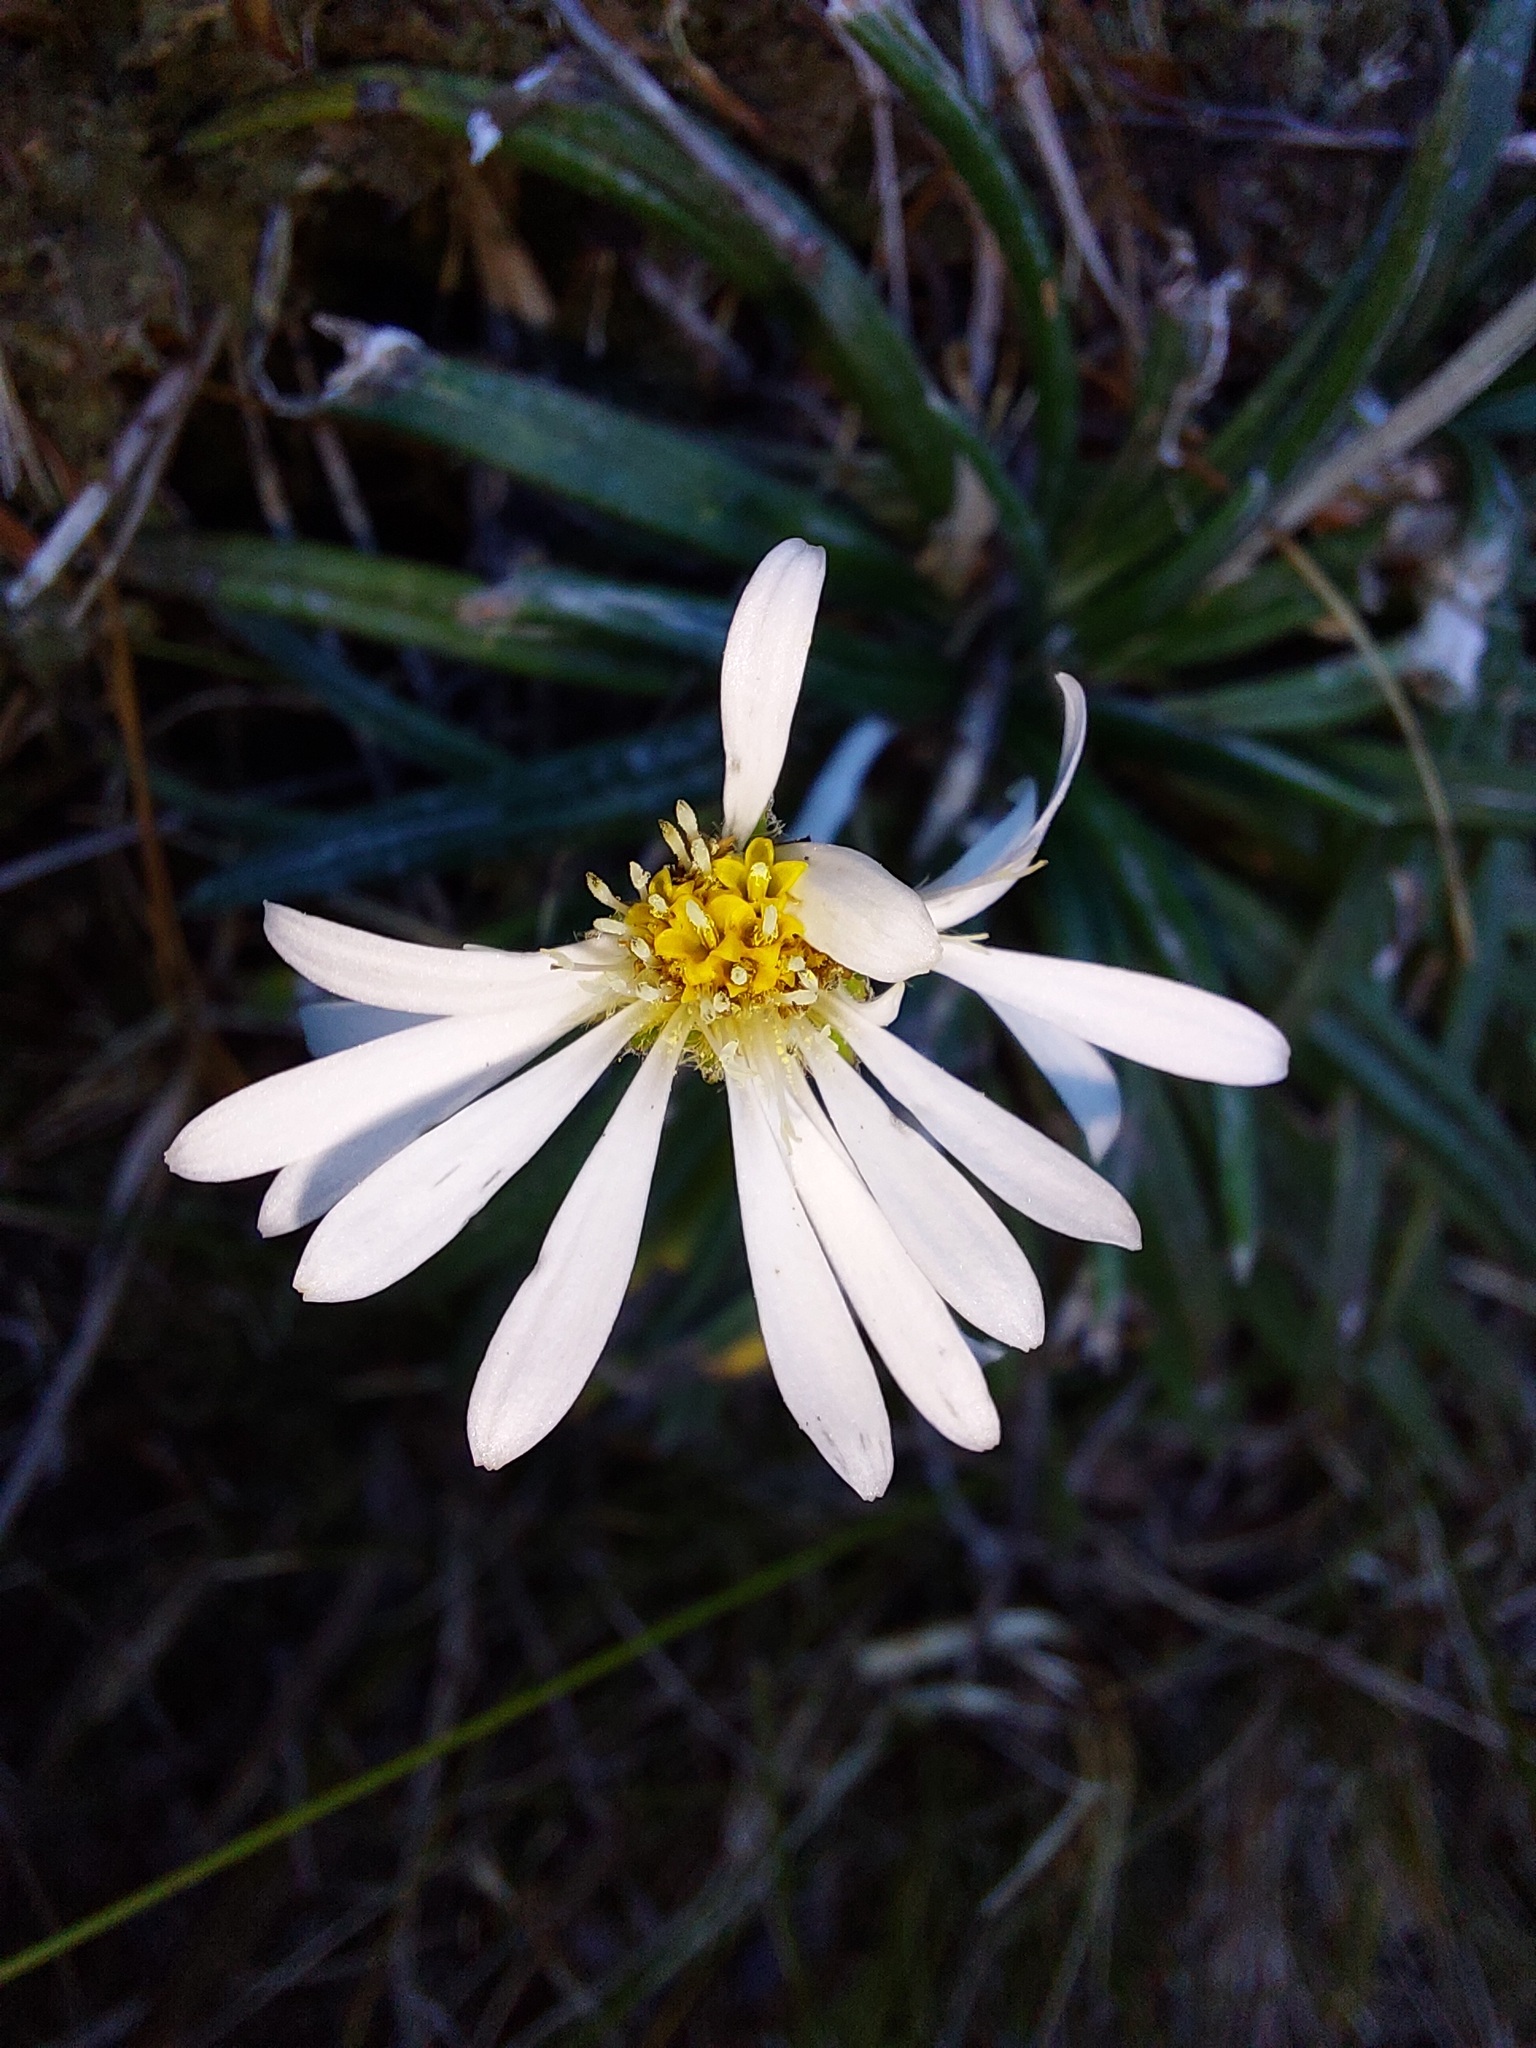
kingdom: Plantae
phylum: Tracheophyta
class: Magnoliopsida
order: Asterales
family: Asteraceae
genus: Celmisia
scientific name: Celmisia major
